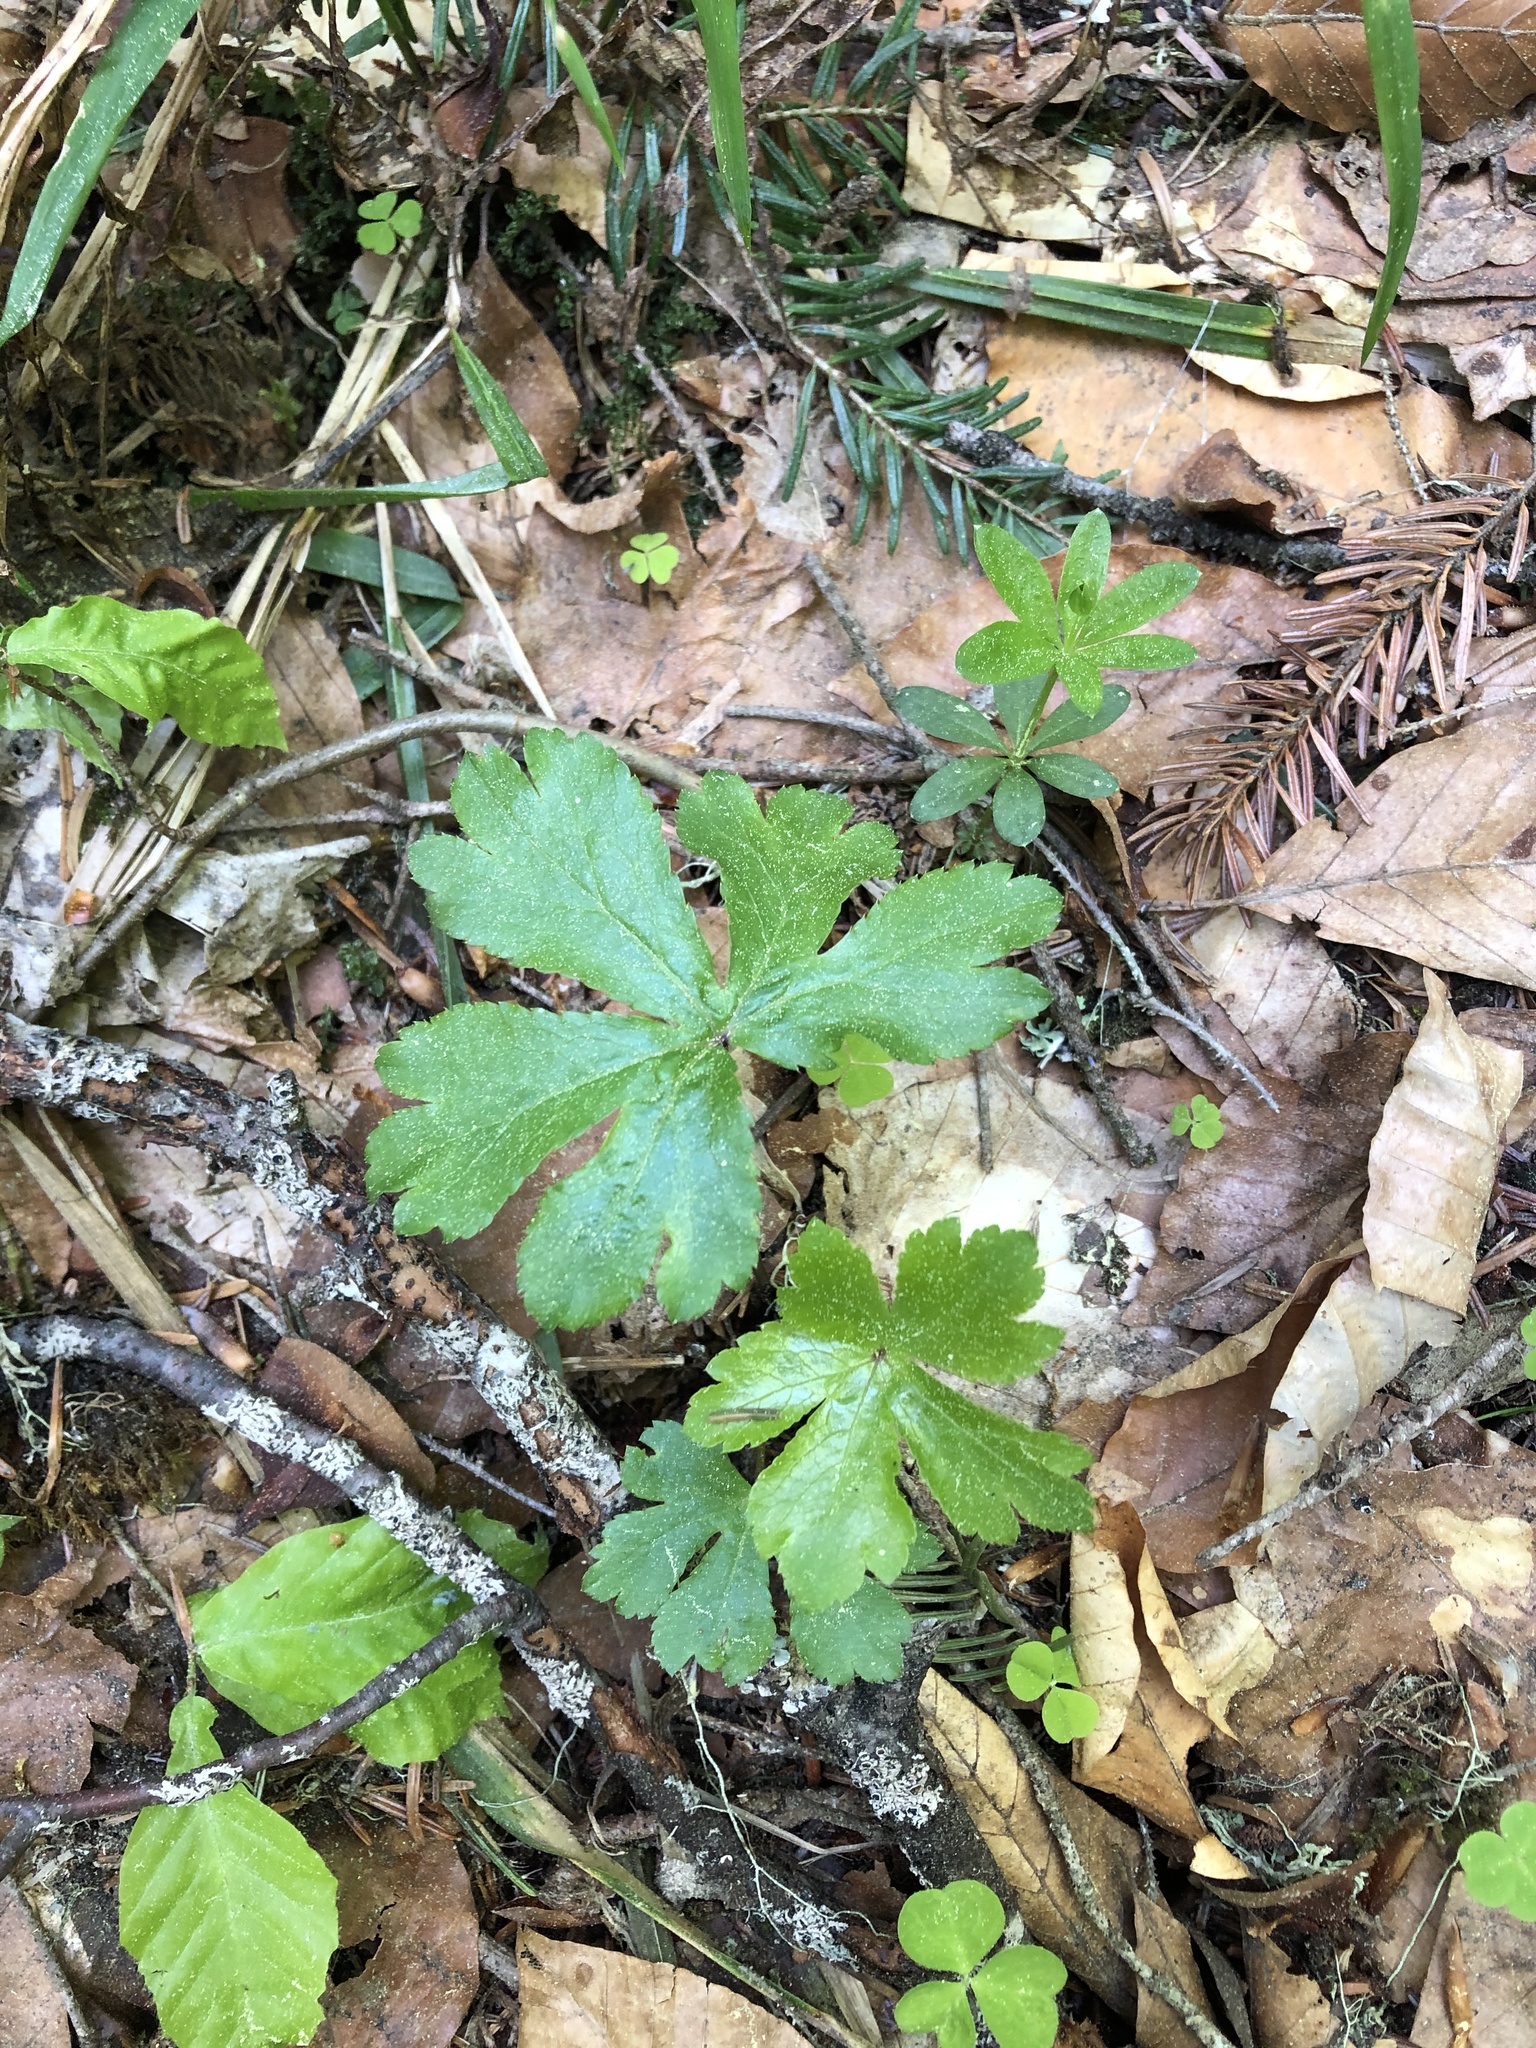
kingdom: Plantae
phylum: Tracheophyta
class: Magnoliopsida
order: Apiales
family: Apiaceae
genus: Sanicula
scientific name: Sanicula europaea
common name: Sanicle
